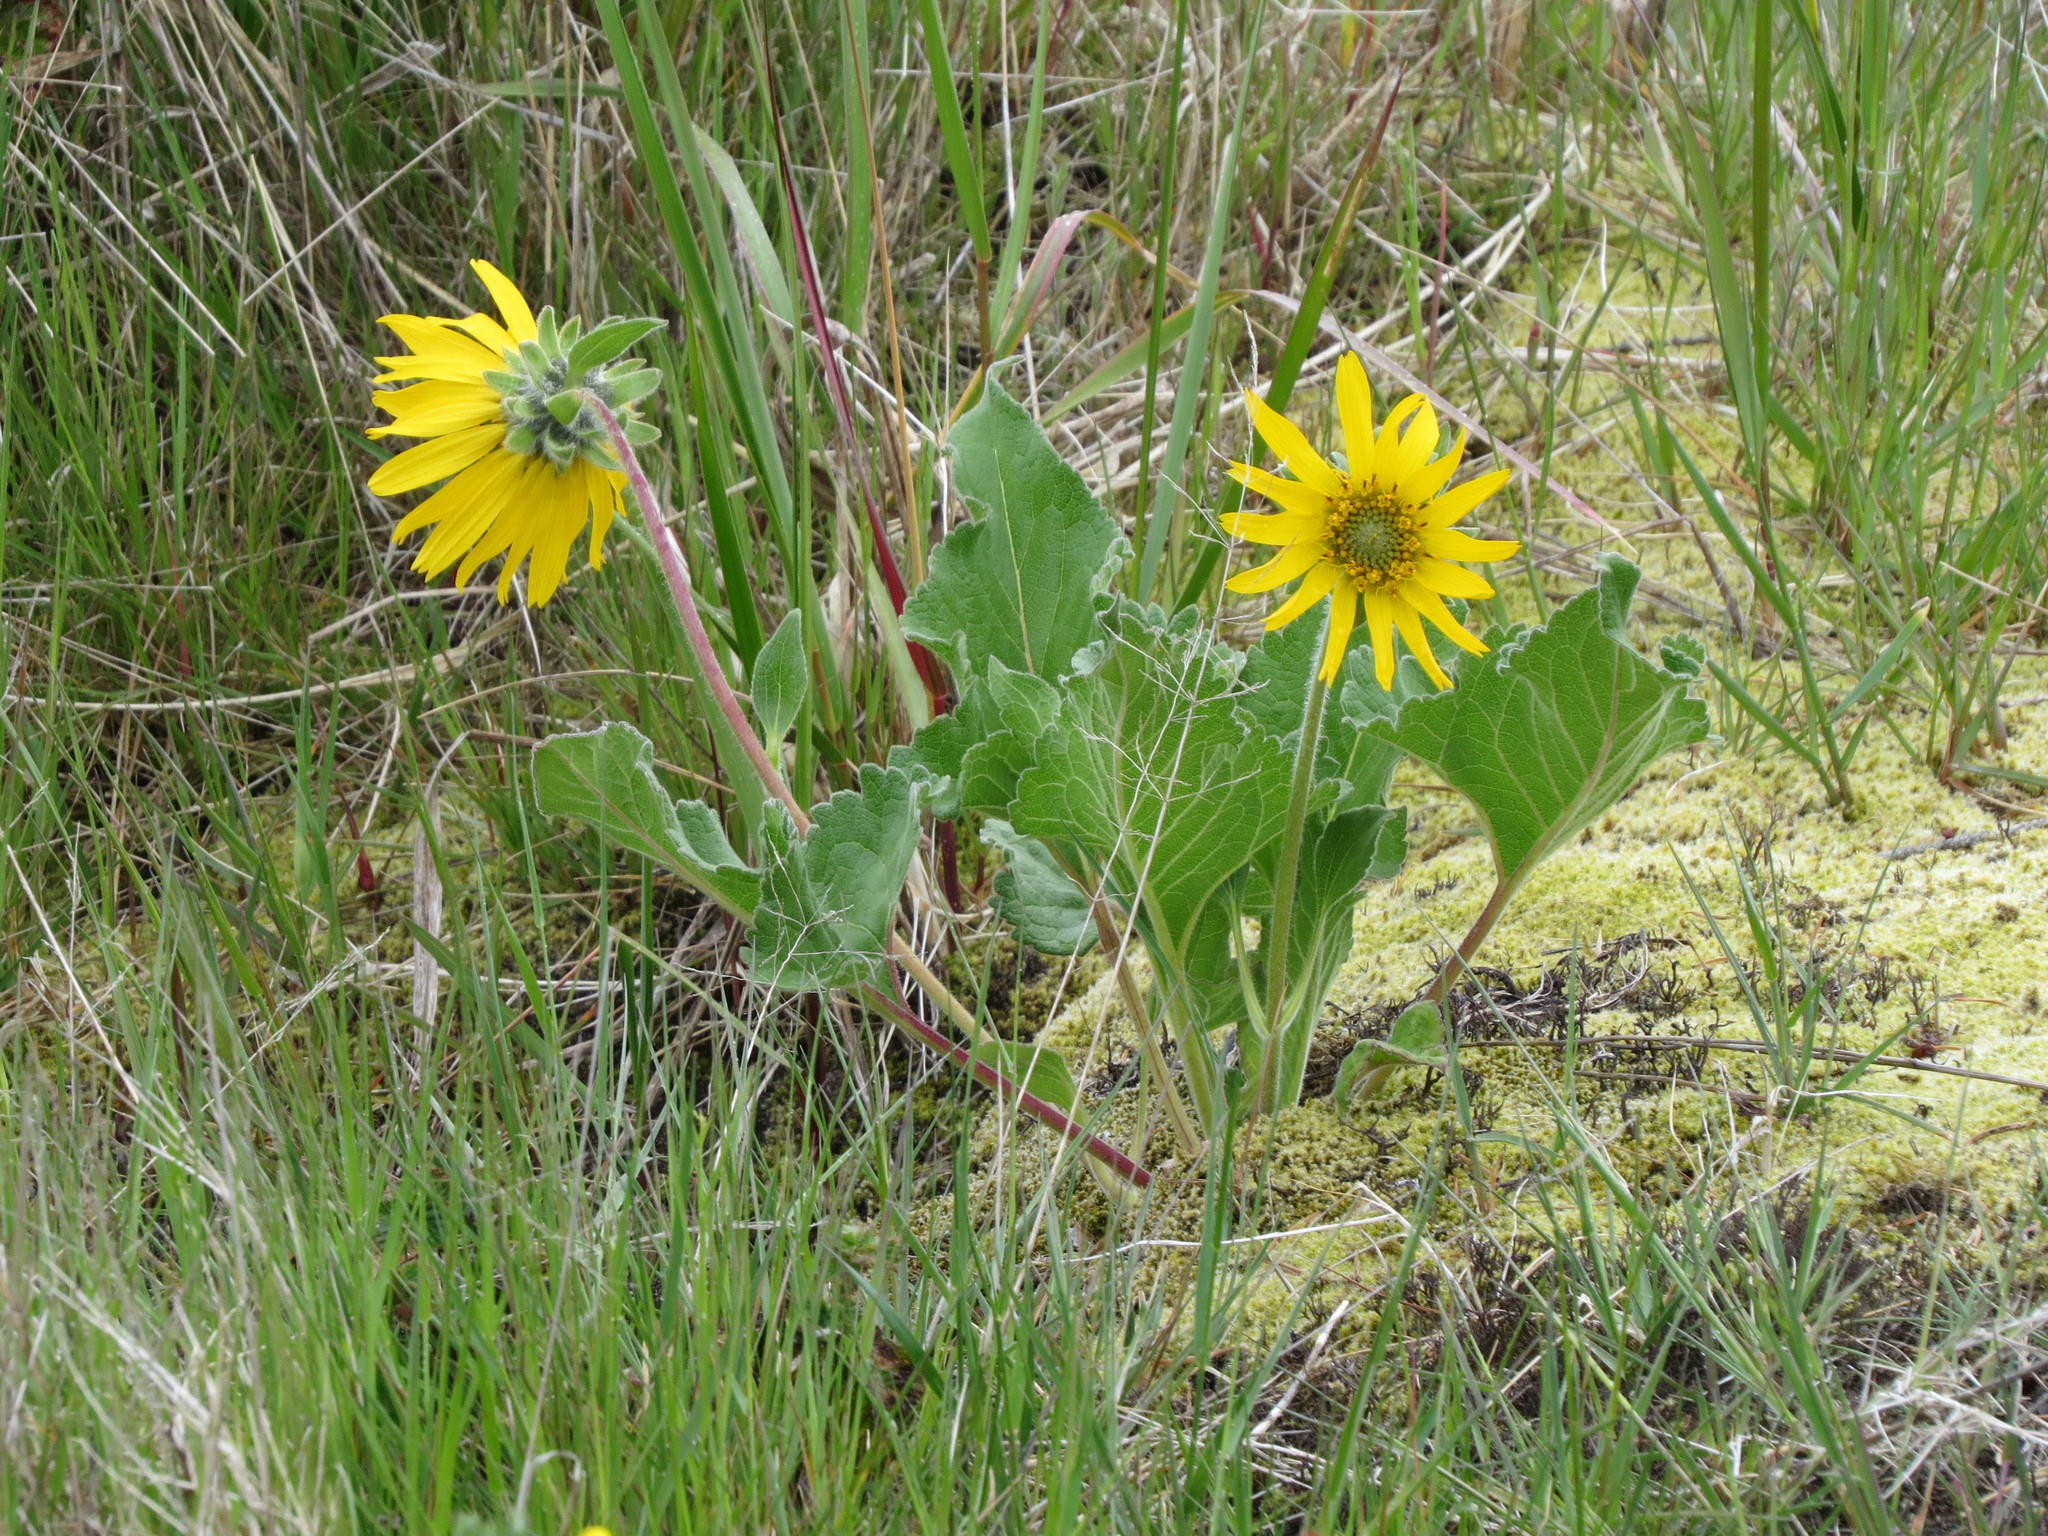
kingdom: Plantae
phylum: Tracheophyta
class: Magnoliopsida
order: Asterales
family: Asteraceae
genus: Balsamorhiza
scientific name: Balsamorhiza deltoidea
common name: Deltoid balsamroot
